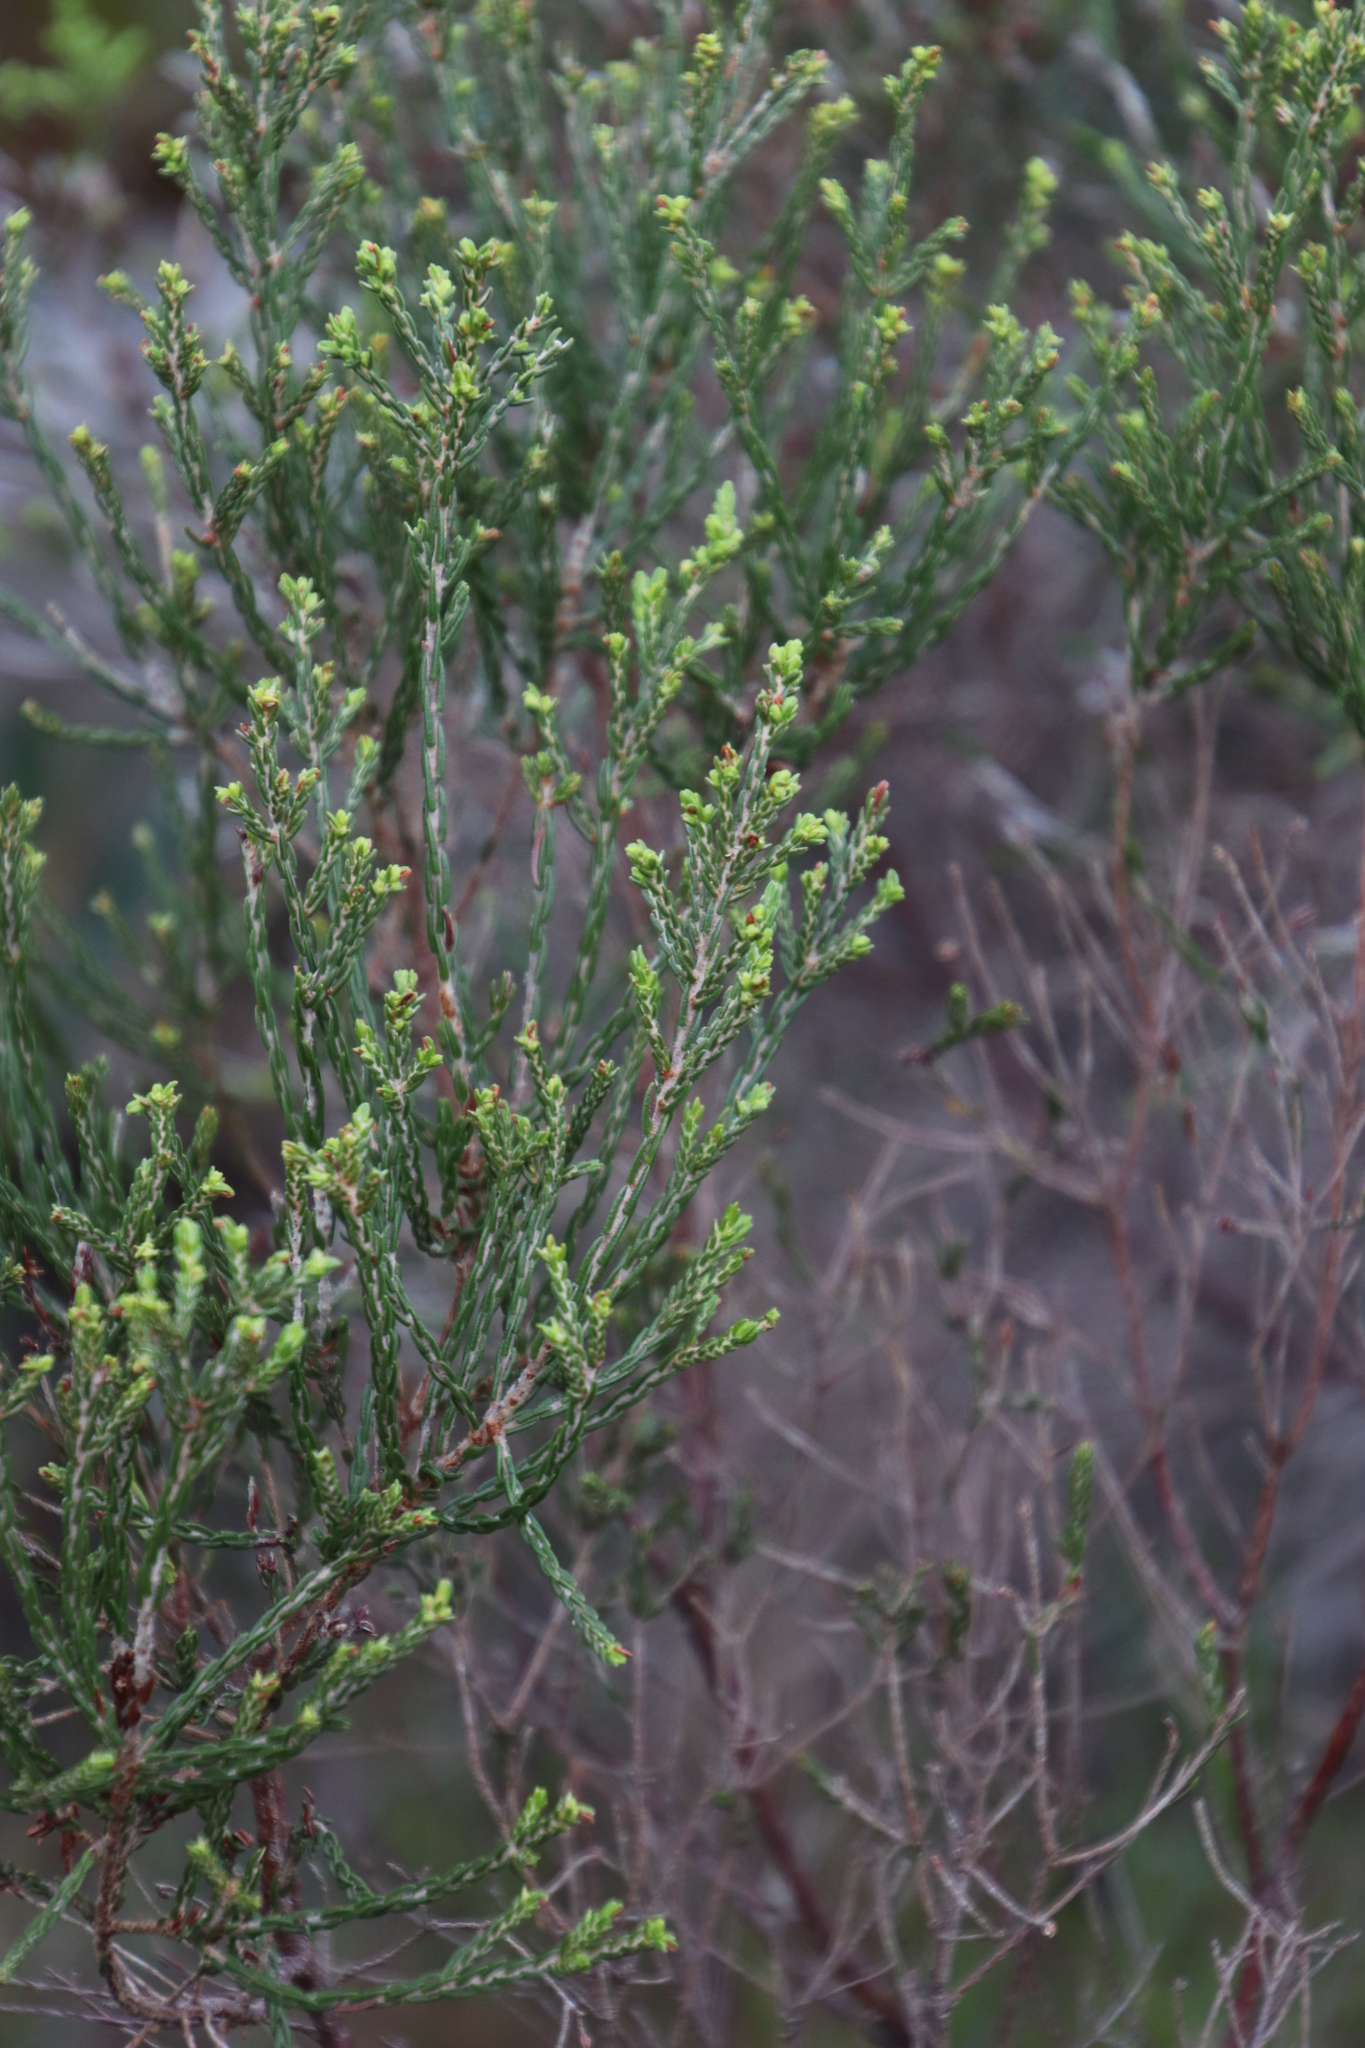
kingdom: Plantae
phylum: Tracheophyta
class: Magnoliopsida
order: Malvales
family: Thymelaeaceae
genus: Passerina
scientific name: Passerina corymbosa
